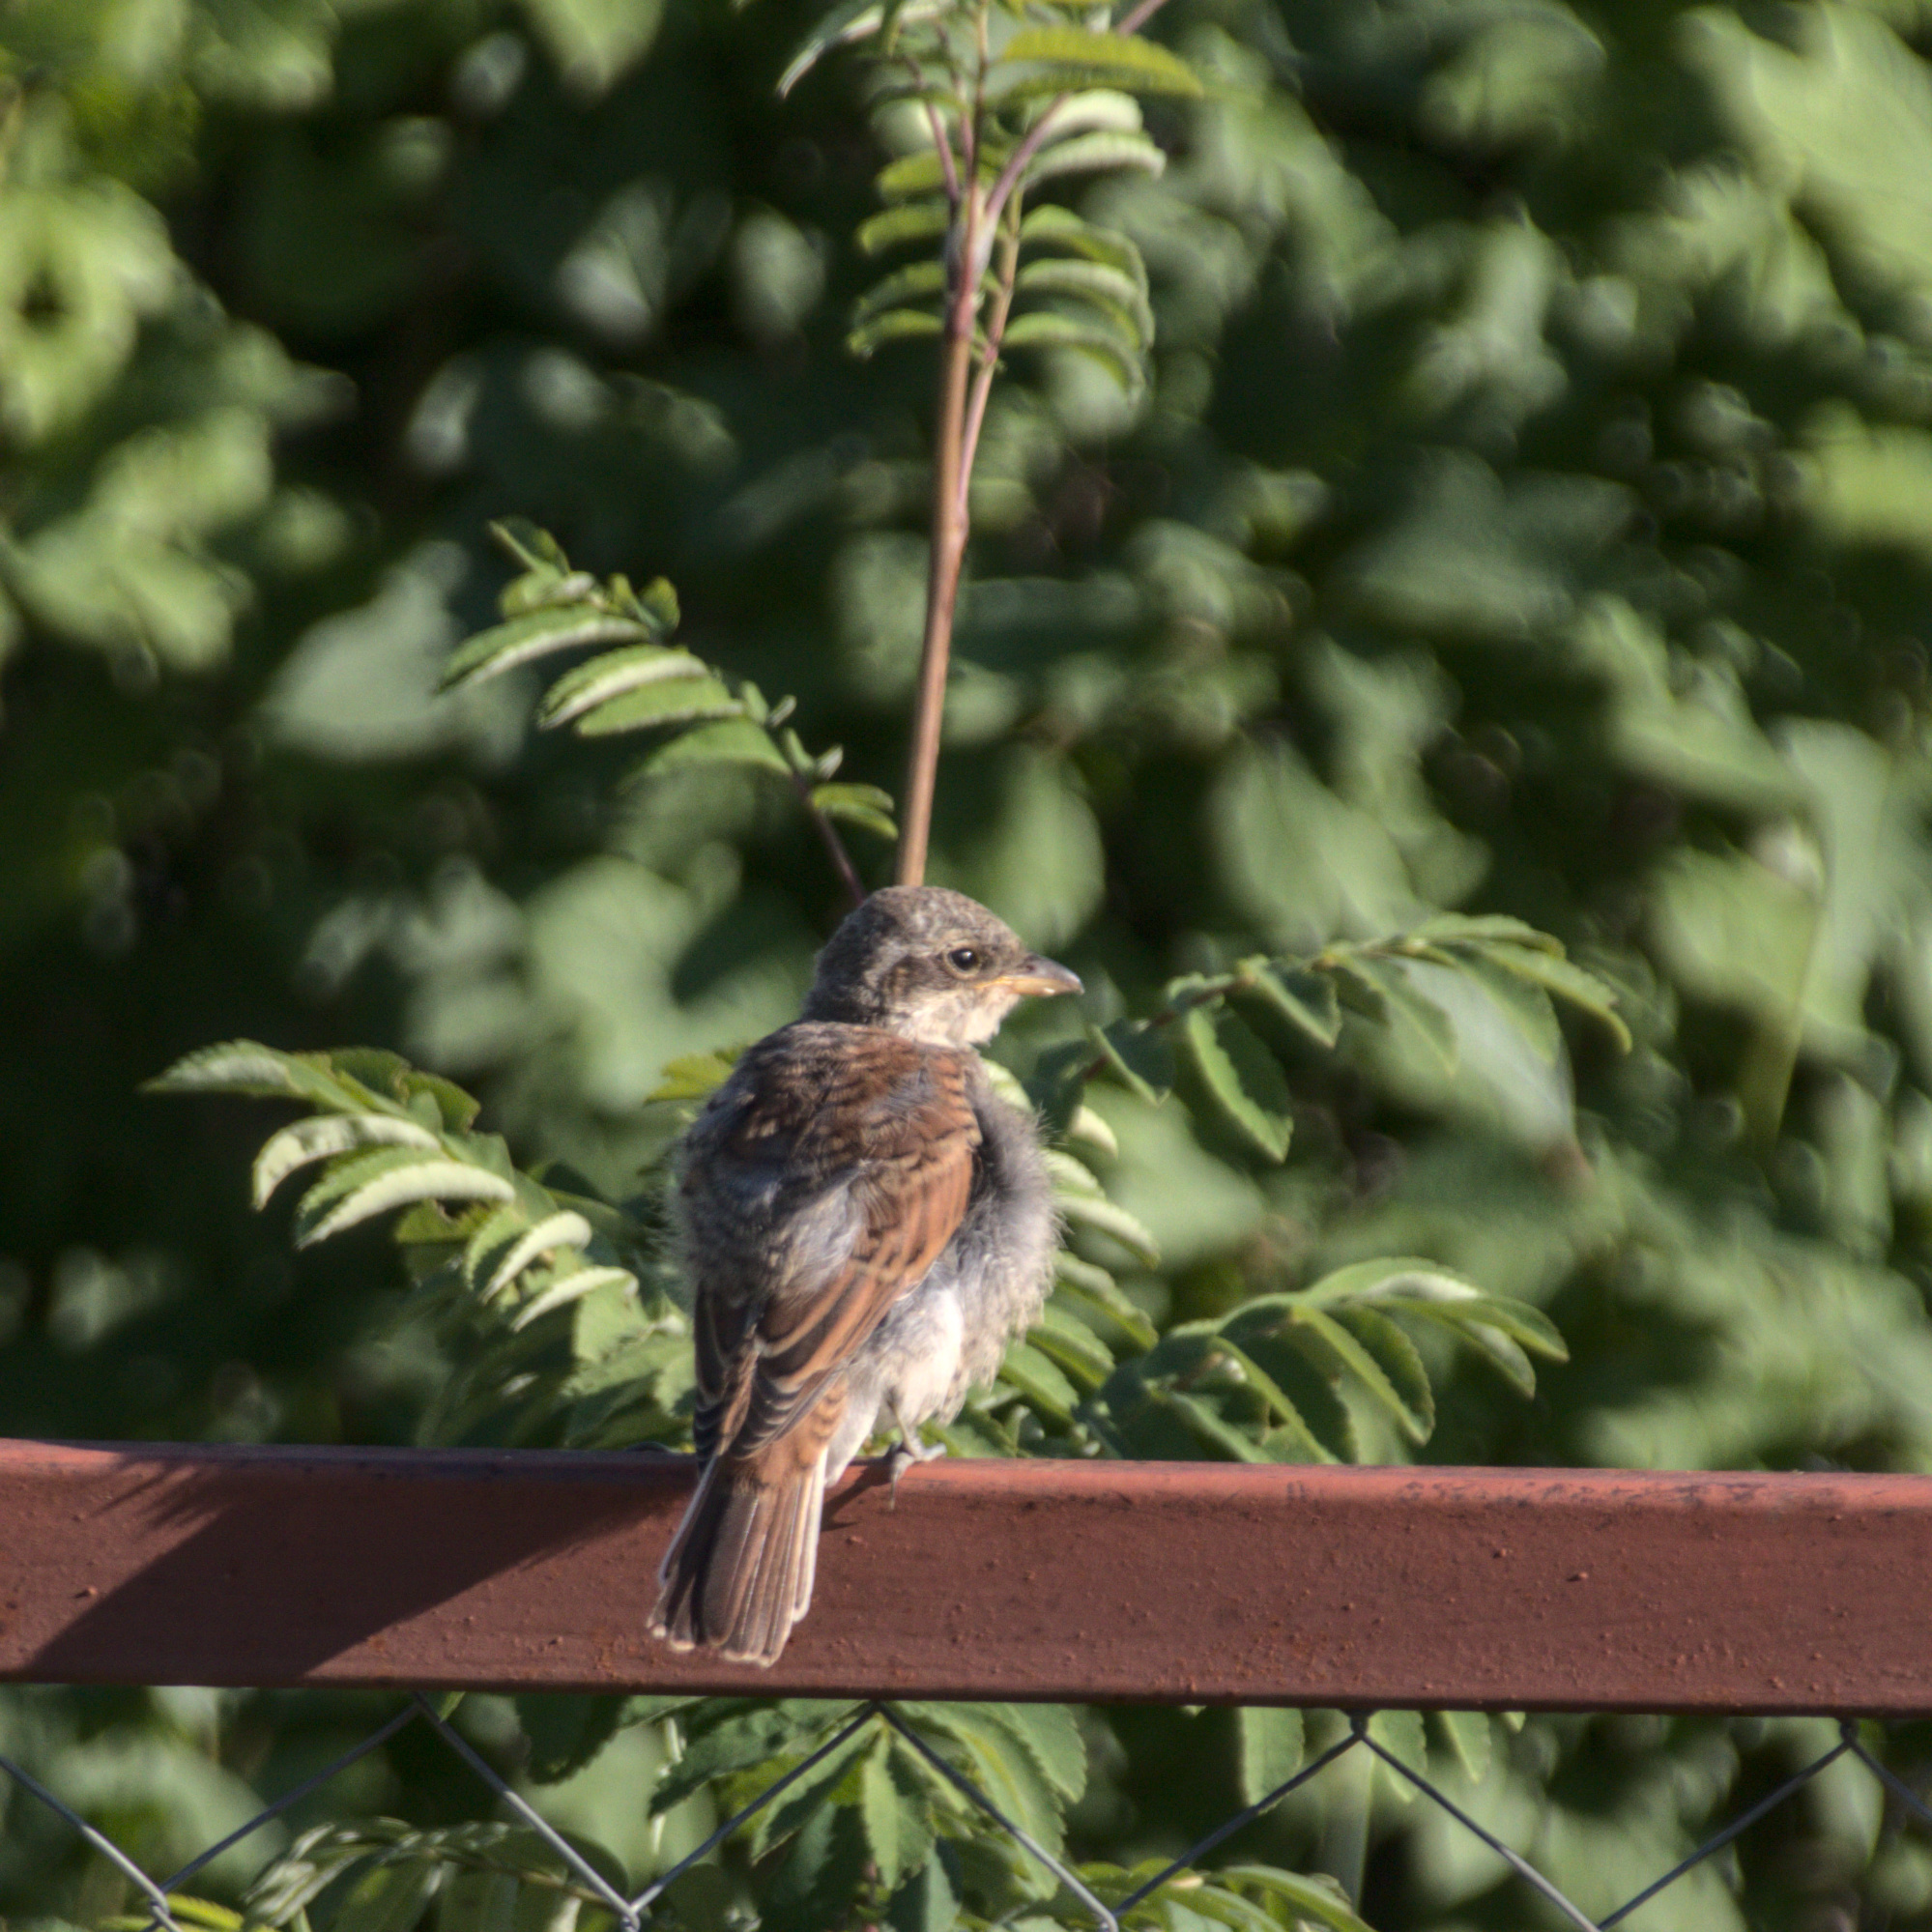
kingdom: Animalia
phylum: Chordata
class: Aves
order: Passeriformes
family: Laniidae
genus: Lanius
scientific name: Lanius collurio
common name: Red-backed shrike
